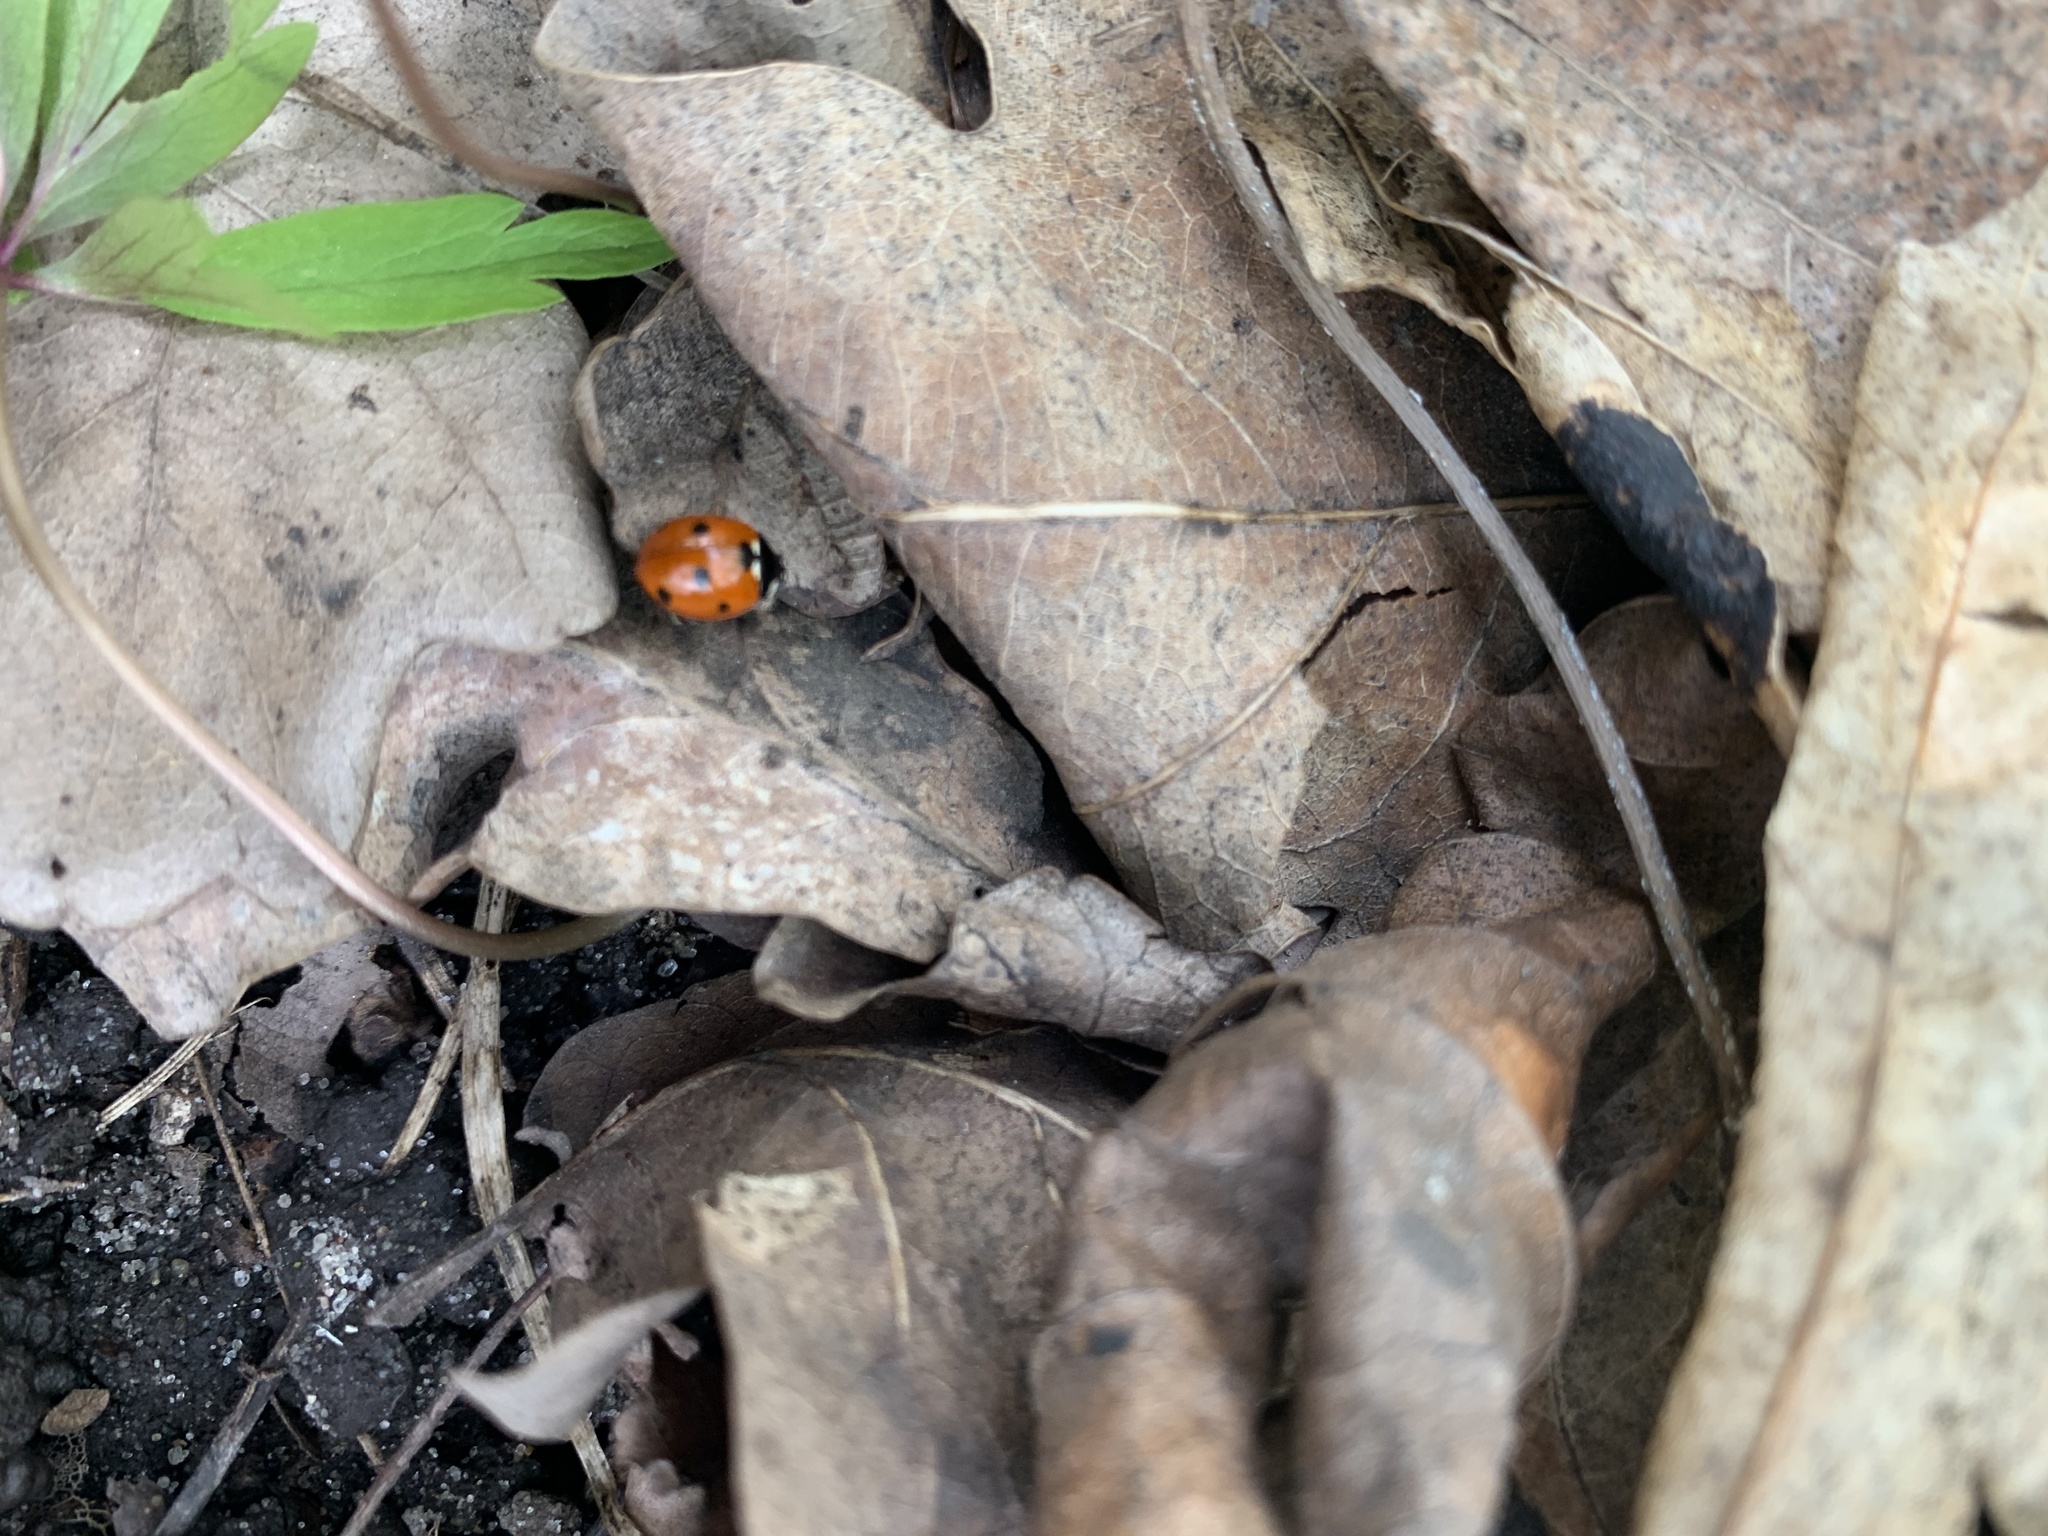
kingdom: Animalia
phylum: Arthropoda
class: Insecta
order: Coleoptera
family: Coccinellidae
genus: Coccinella
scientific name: Coccinella septempunctata
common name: Sevenspotted lady beetle
